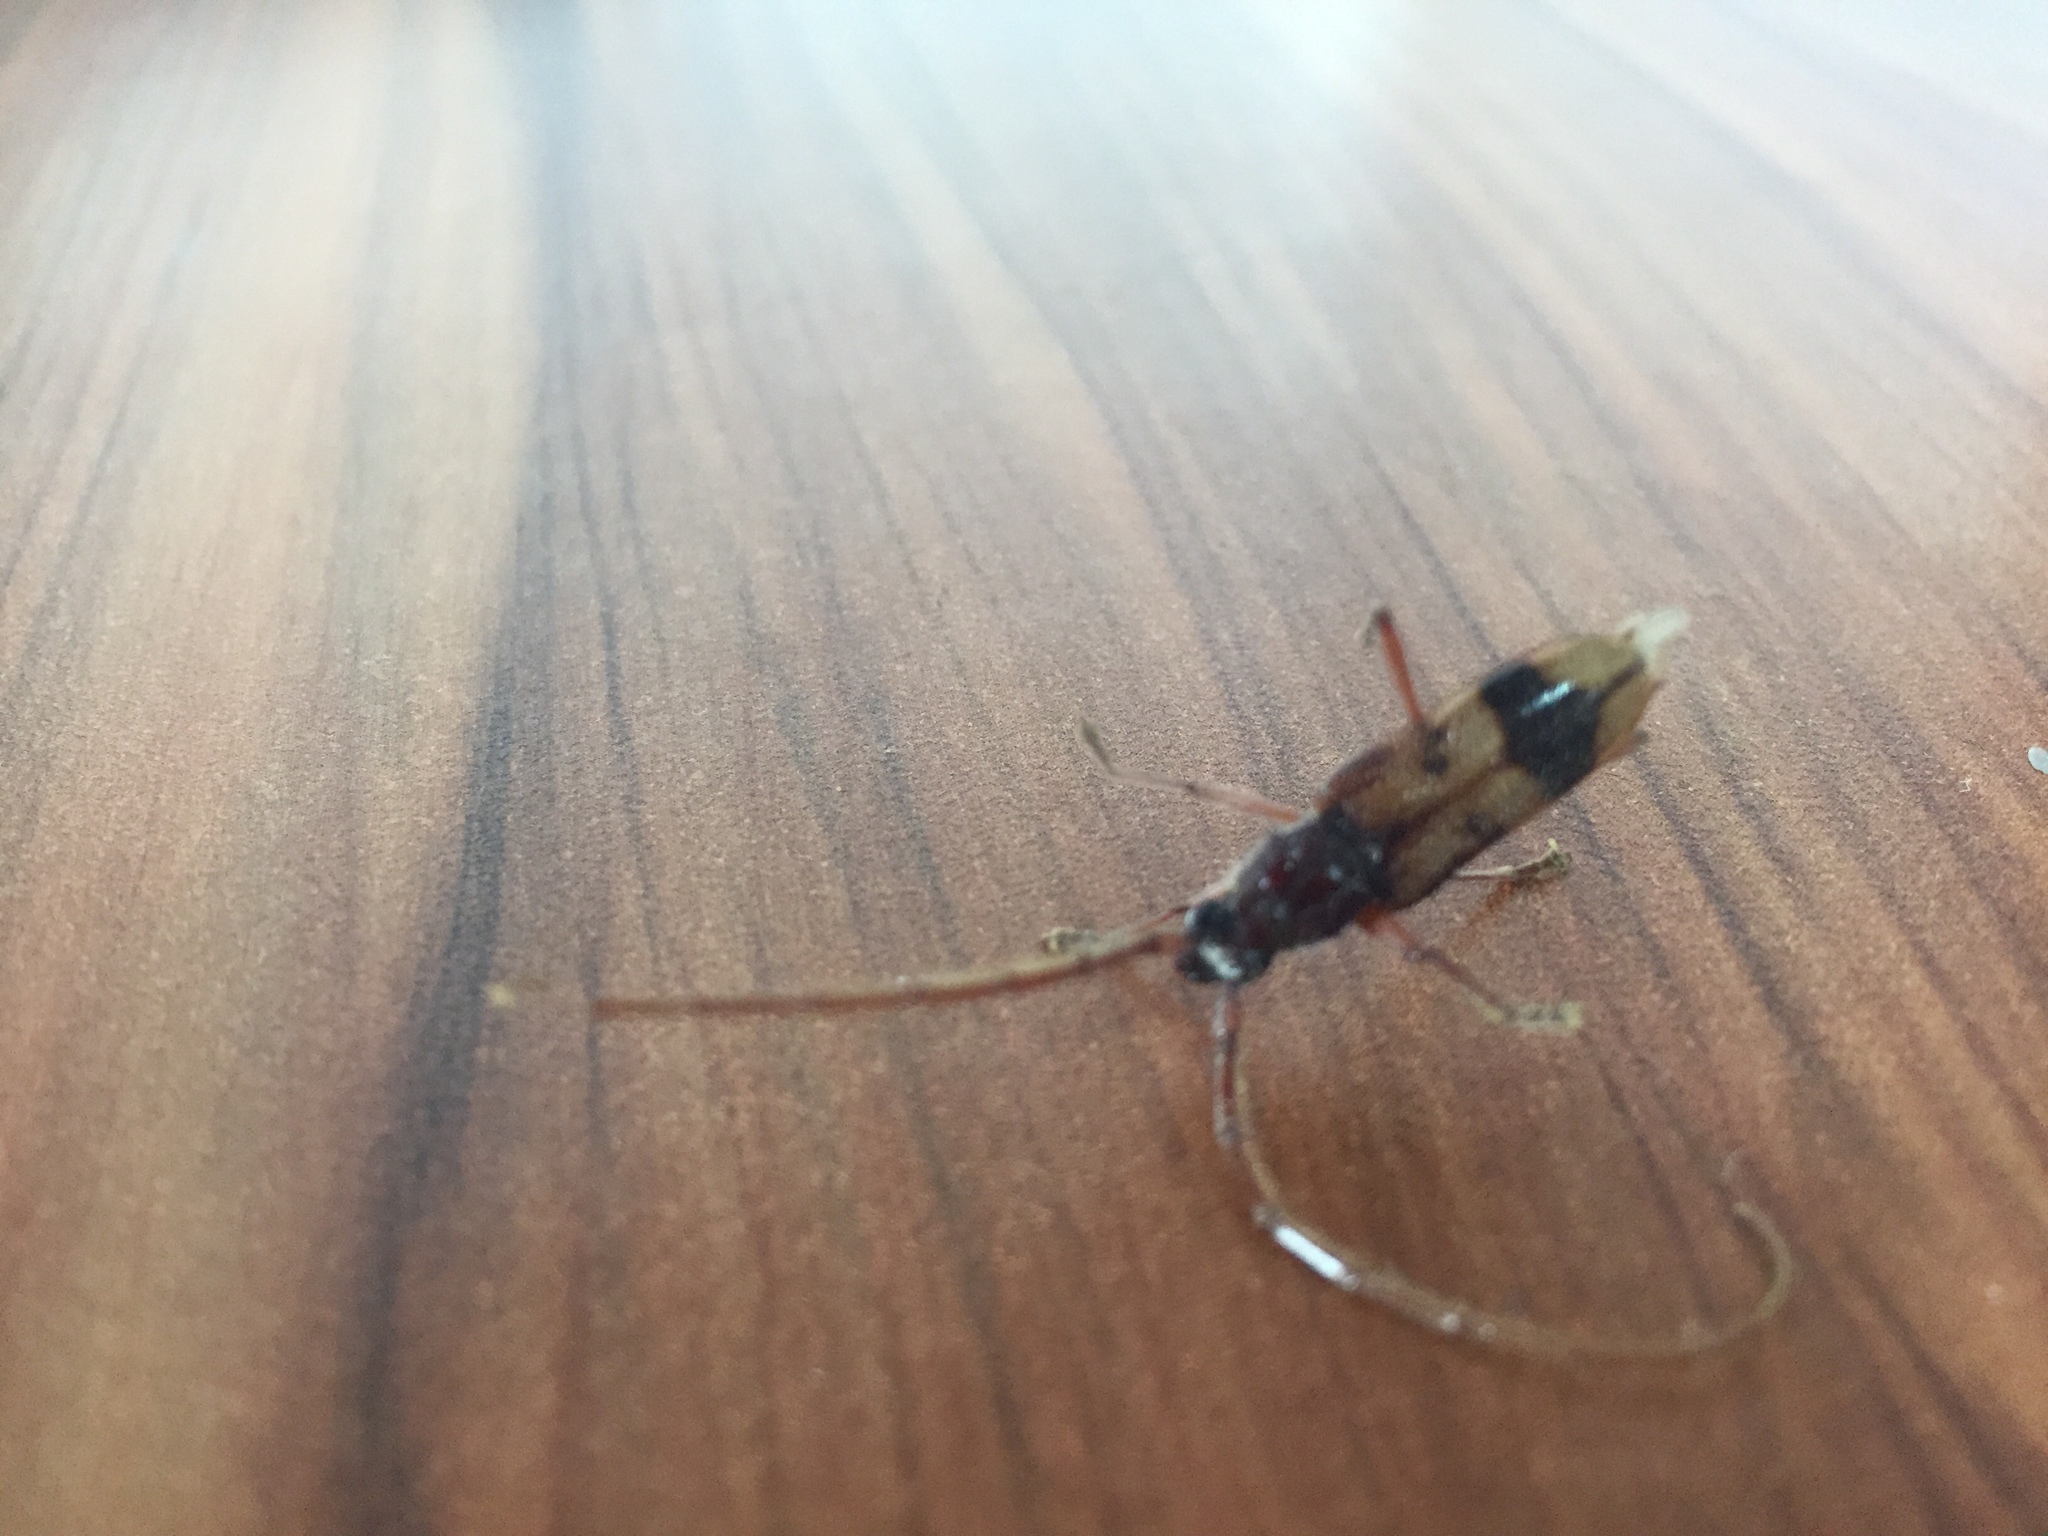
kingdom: Animalia
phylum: Arthropoda
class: Insecta
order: Coleoptera
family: Cerambycidae
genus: Phoracantha
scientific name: Phoracantha recurva
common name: Eucalyptus longhorned borer
